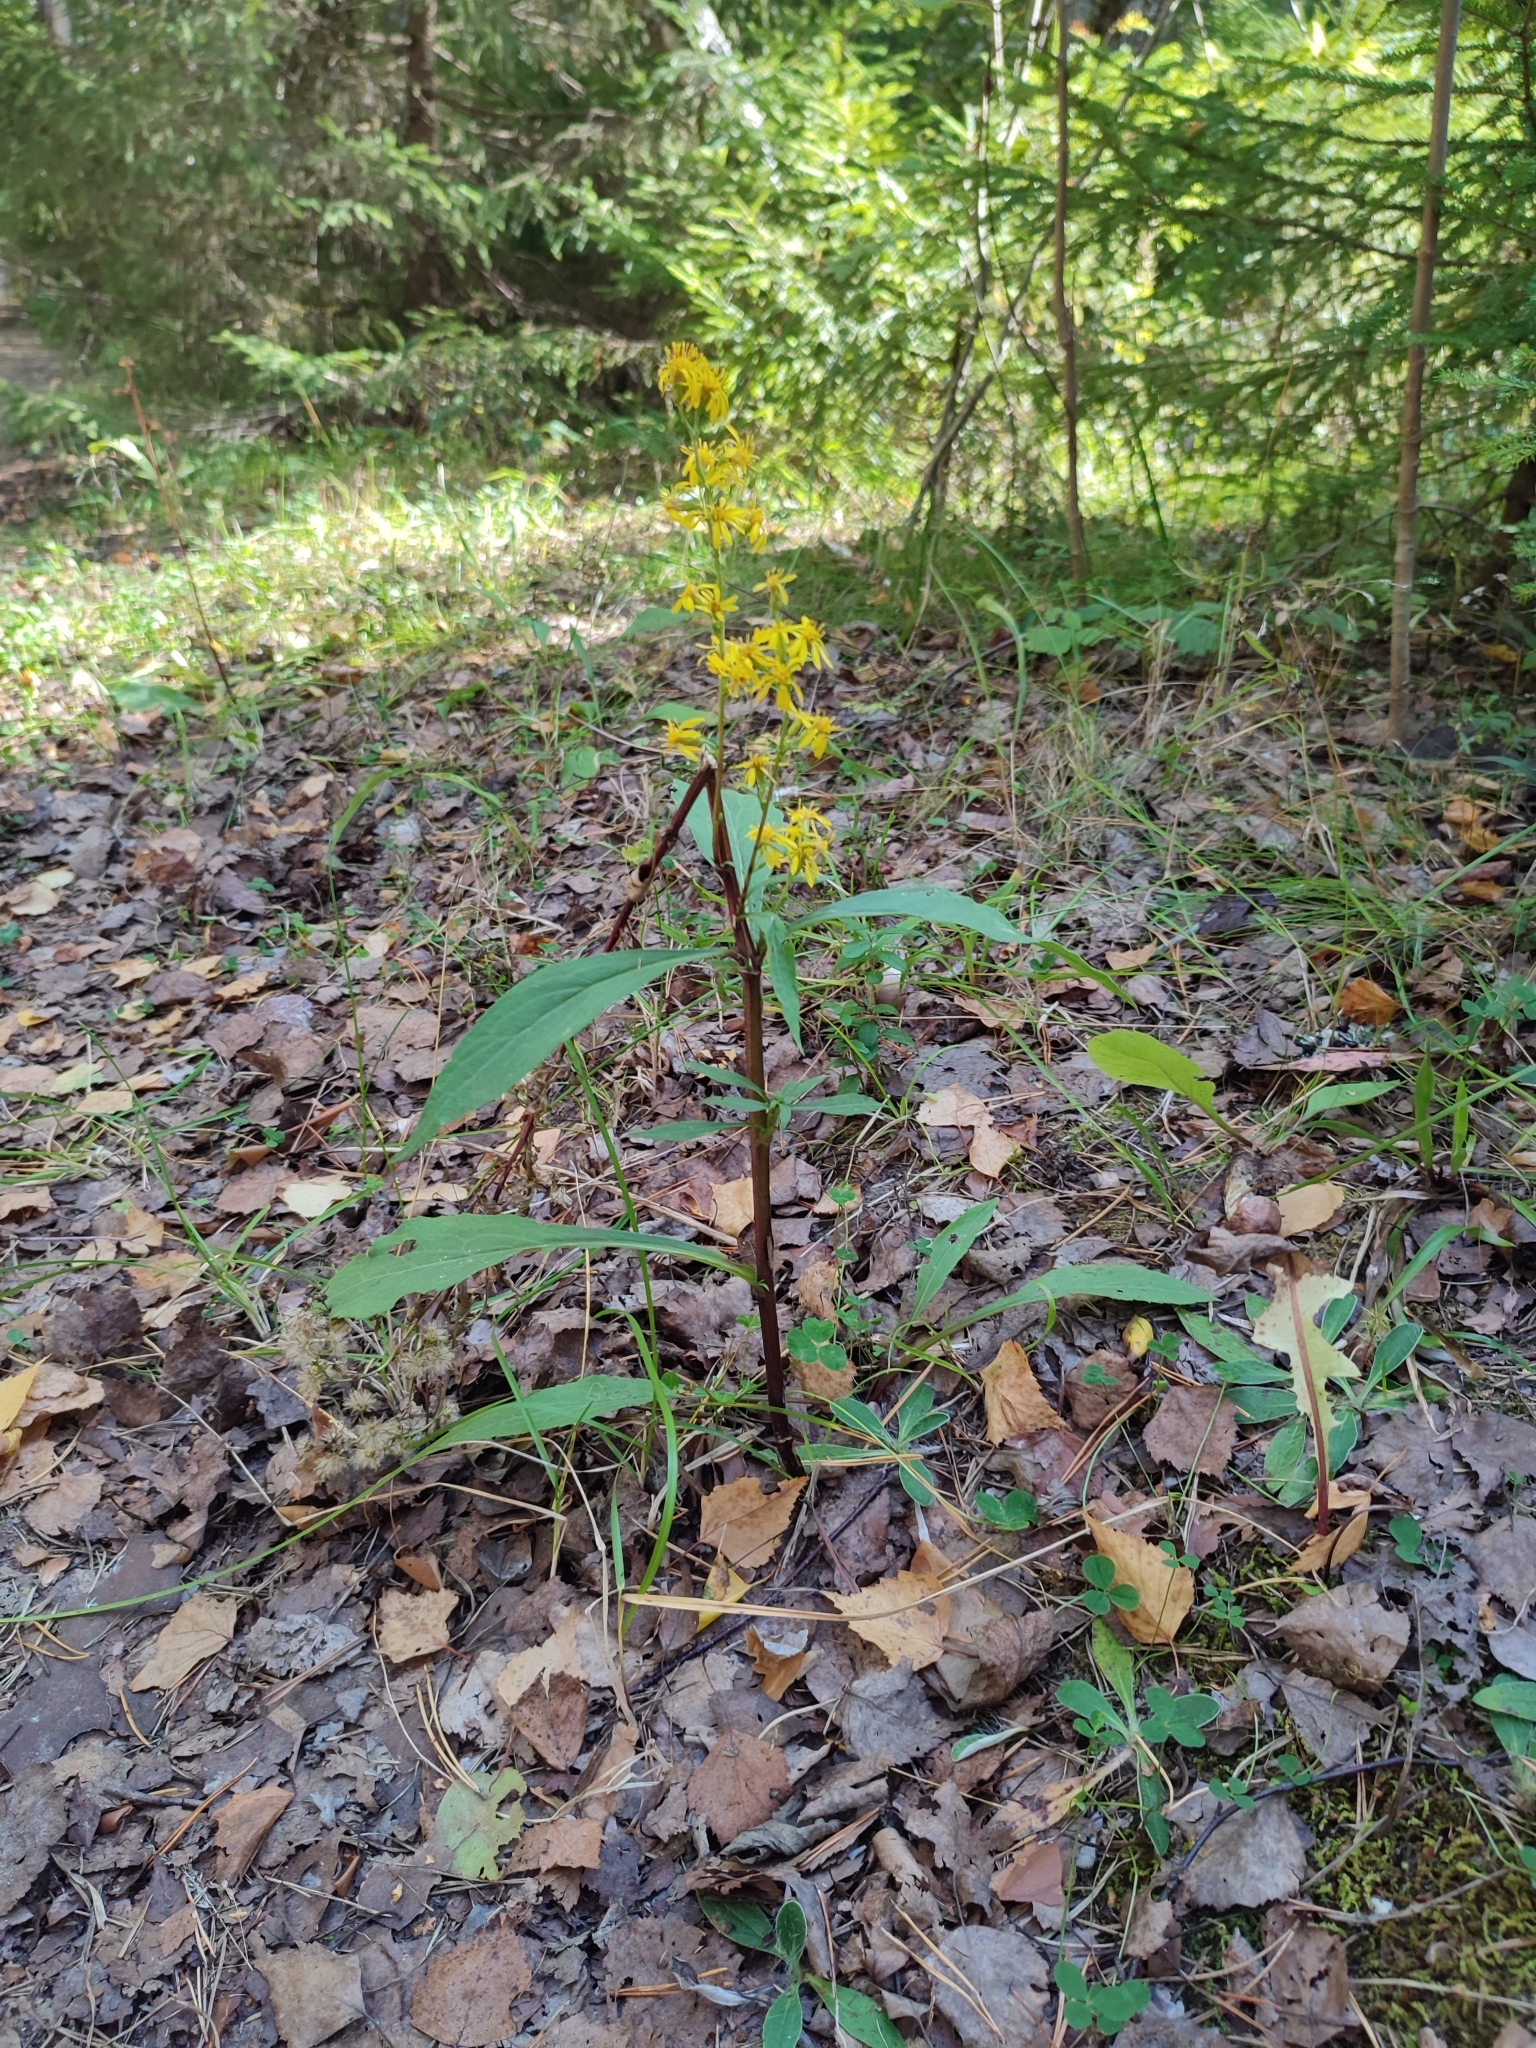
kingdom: Plantae
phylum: Tracheophyta
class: Magnoliopsida
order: Asterales
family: Asteraceae
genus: Solidago
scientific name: Solidago virgaurea
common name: Goldenrod
